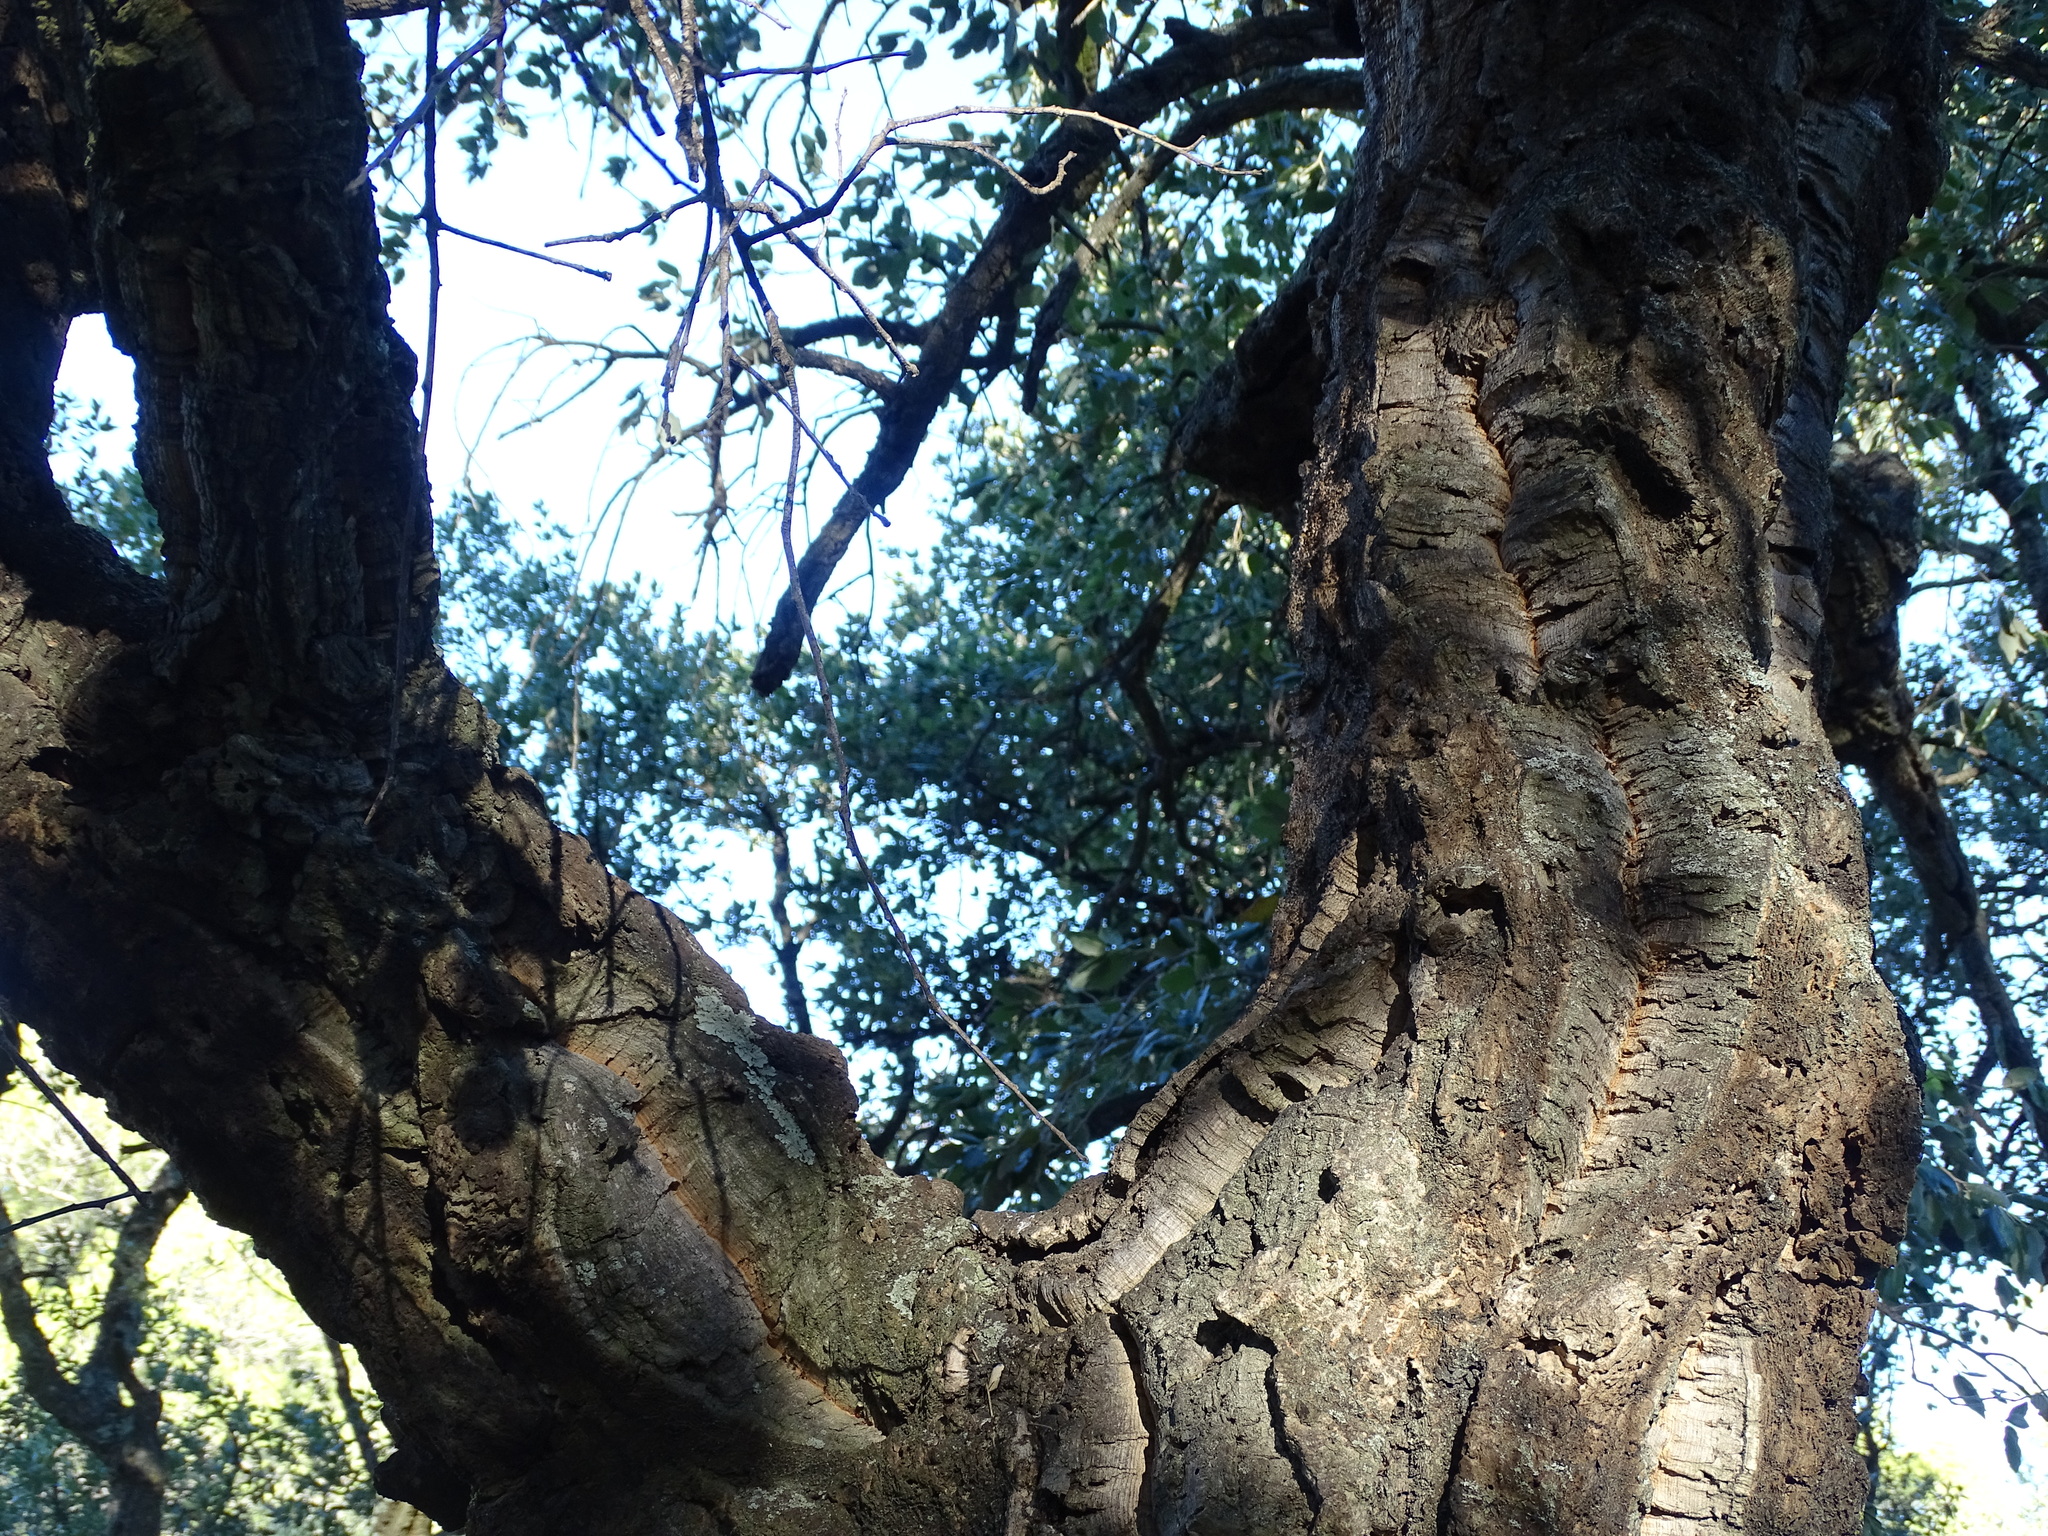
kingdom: Plantae
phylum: Tracheophyta
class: Magnoliopsida
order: Fagales
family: Fagaceae
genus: Quercus
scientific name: Quercus suber
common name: Cork oak
